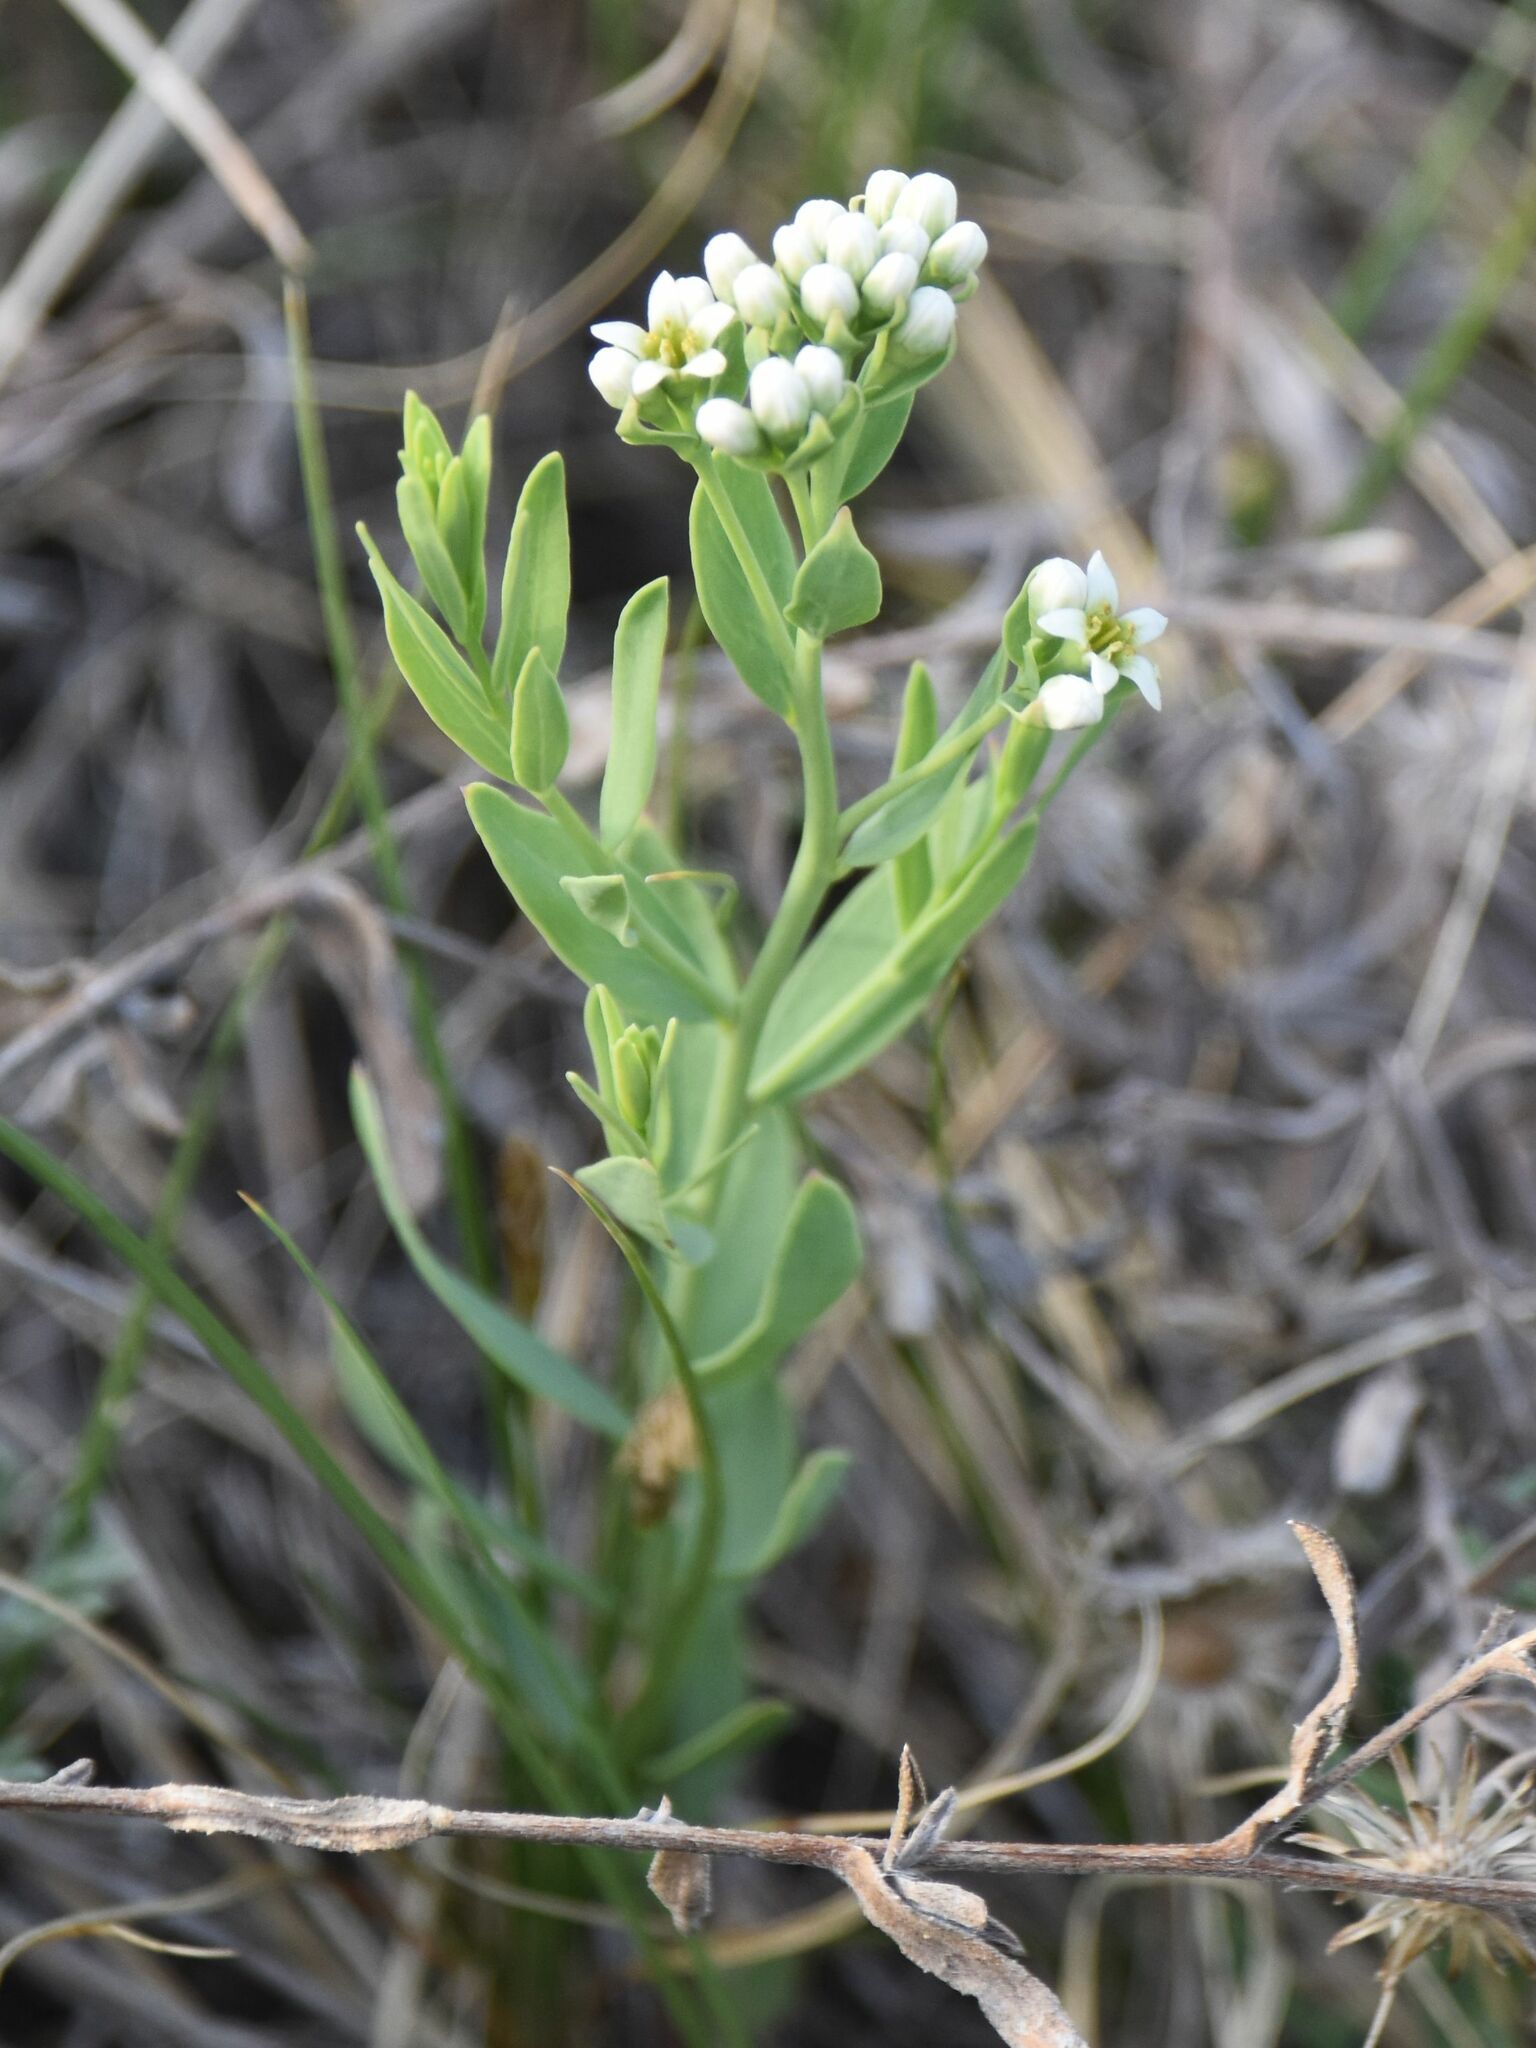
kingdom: Plantae
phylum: Tracheophyta
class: Magnoliopsida
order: Santalales
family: Comandraceae
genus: Comandra
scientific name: Comandra umbellata
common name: Bastard toadflax
